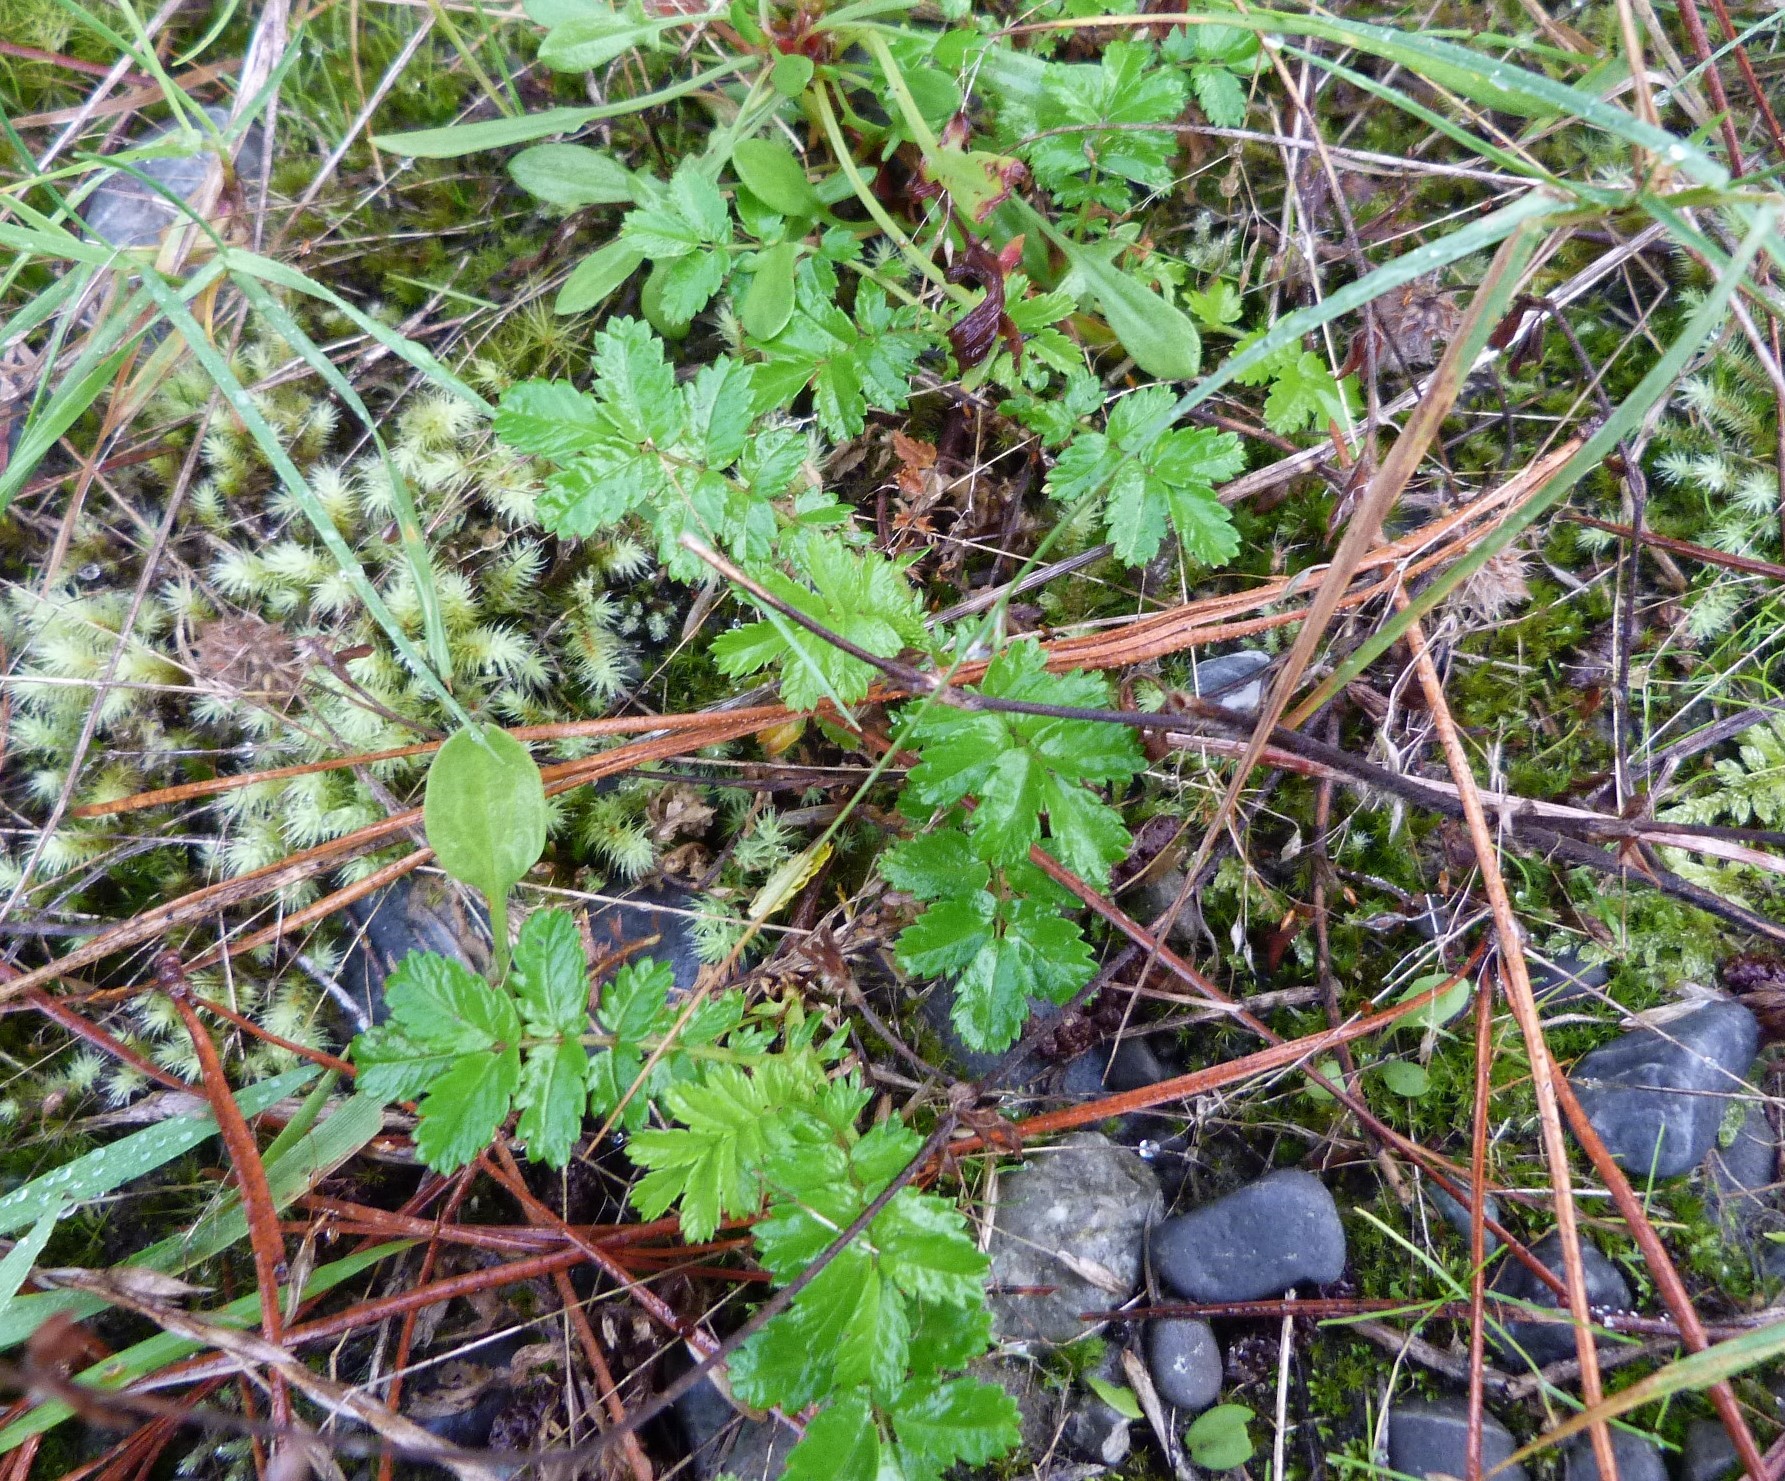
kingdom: Plantae
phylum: Tracheophyta
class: Magnoliopsida
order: Rosales
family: Rosaceae
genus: Acaena
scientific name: Acaena novae-zelandiae
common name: Pirri-pirri-bur
